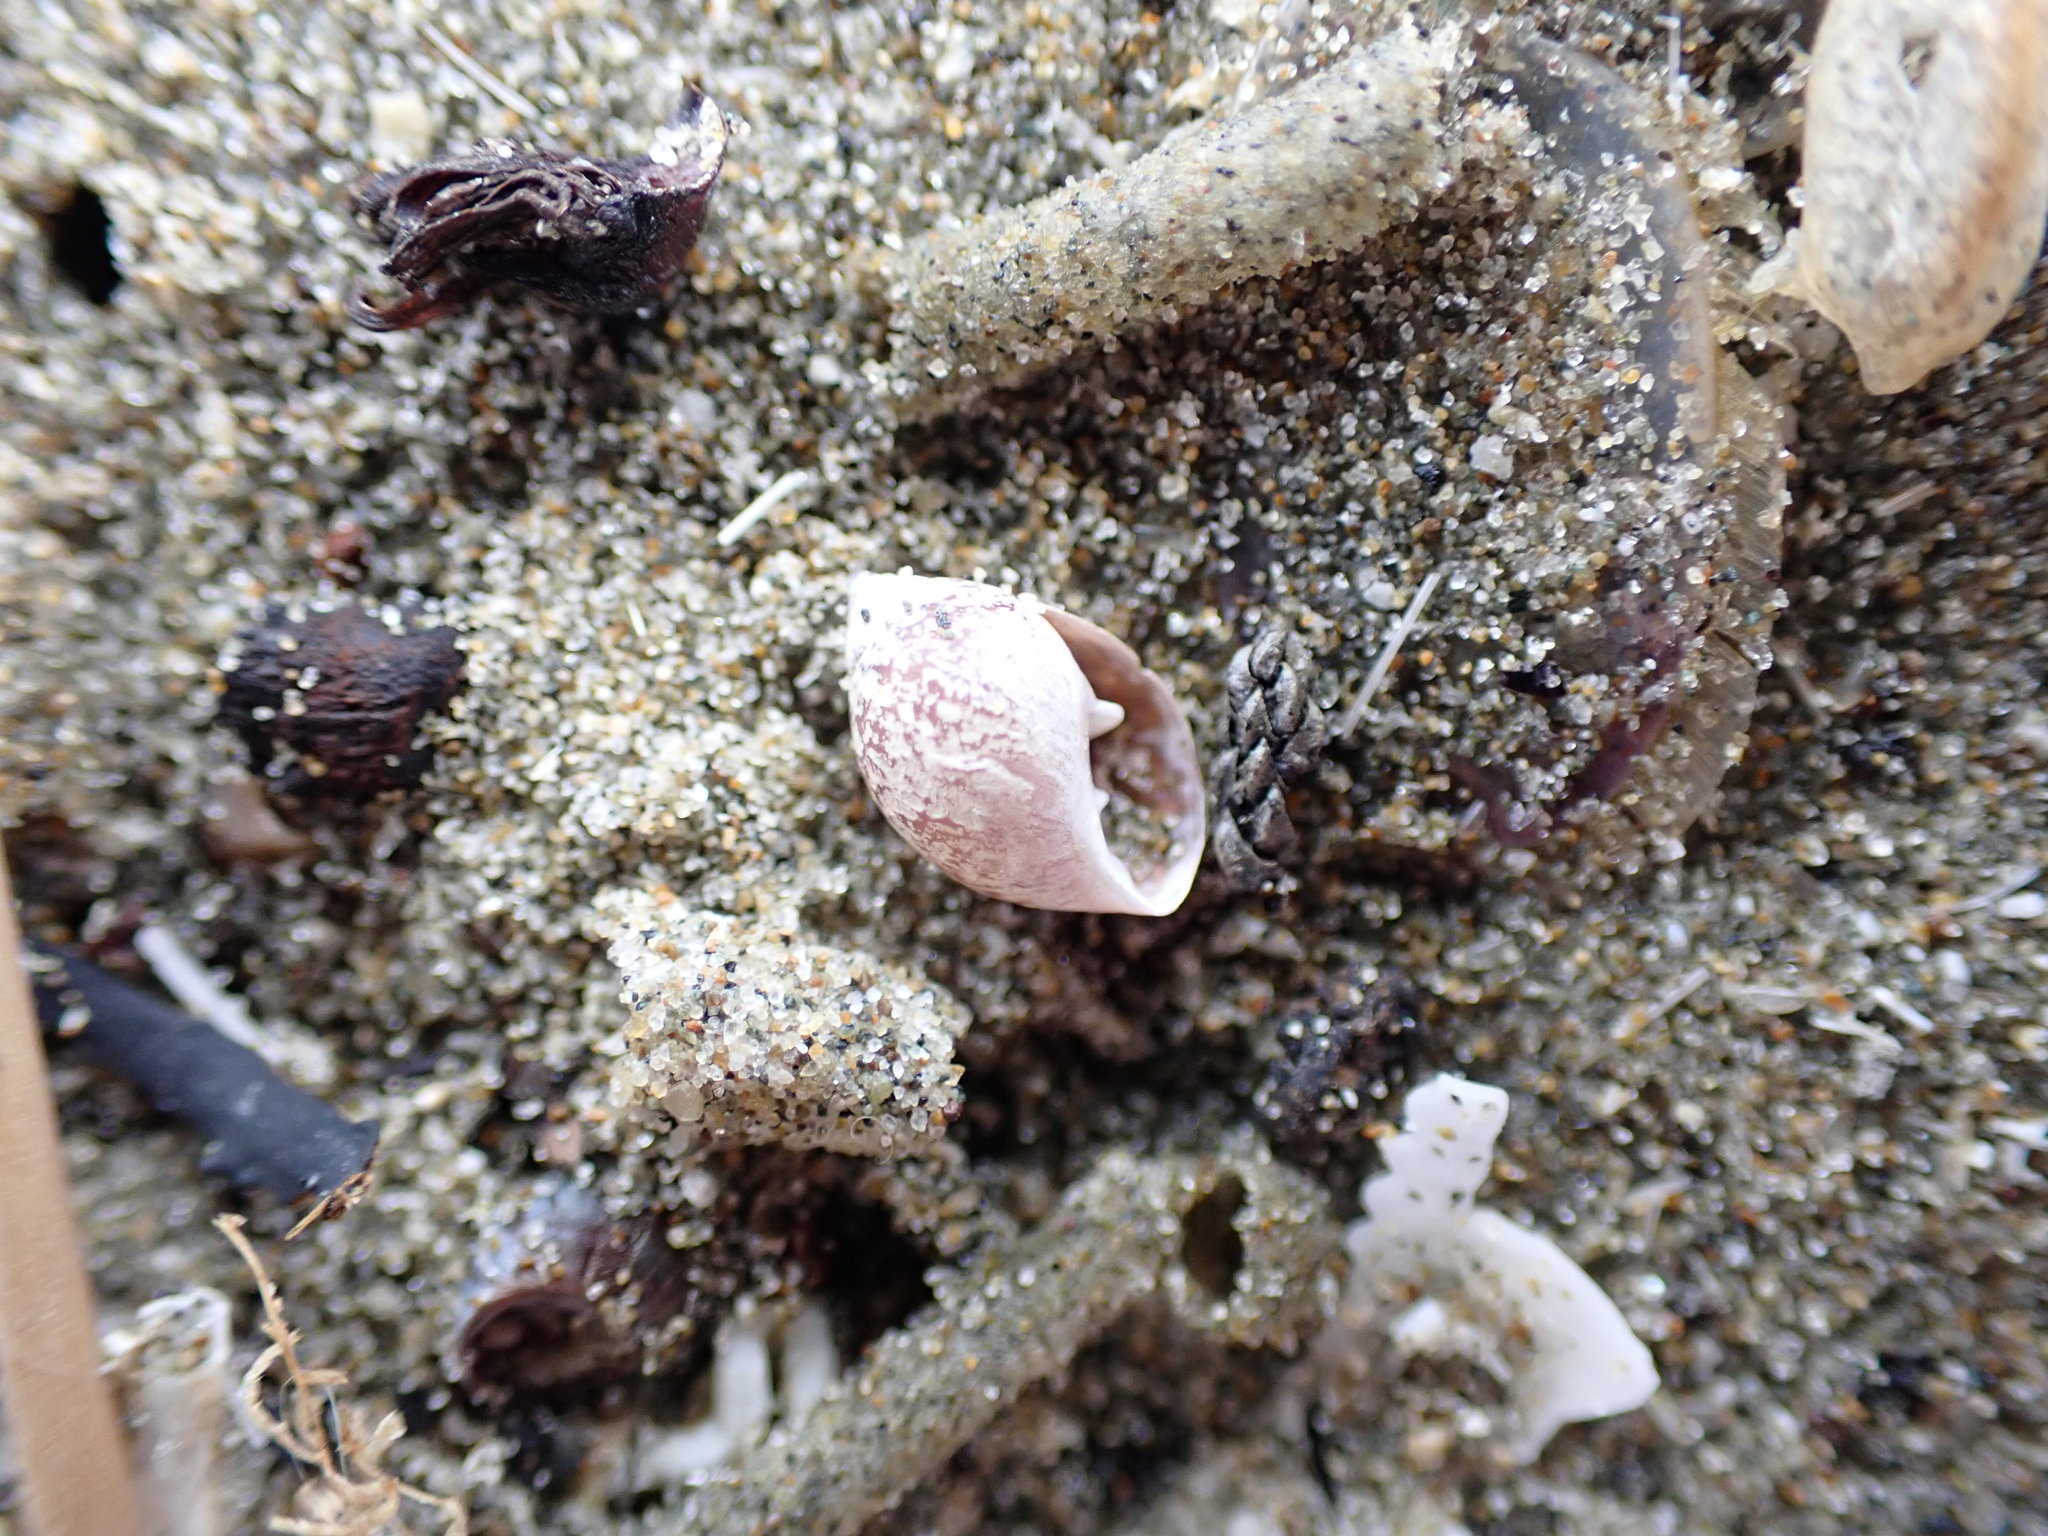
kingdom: Animalia
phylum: Mollusca
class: Gastropoda
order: Ellobiida
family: Ellobiidae
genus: Marinula
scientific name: Marinula filholi
